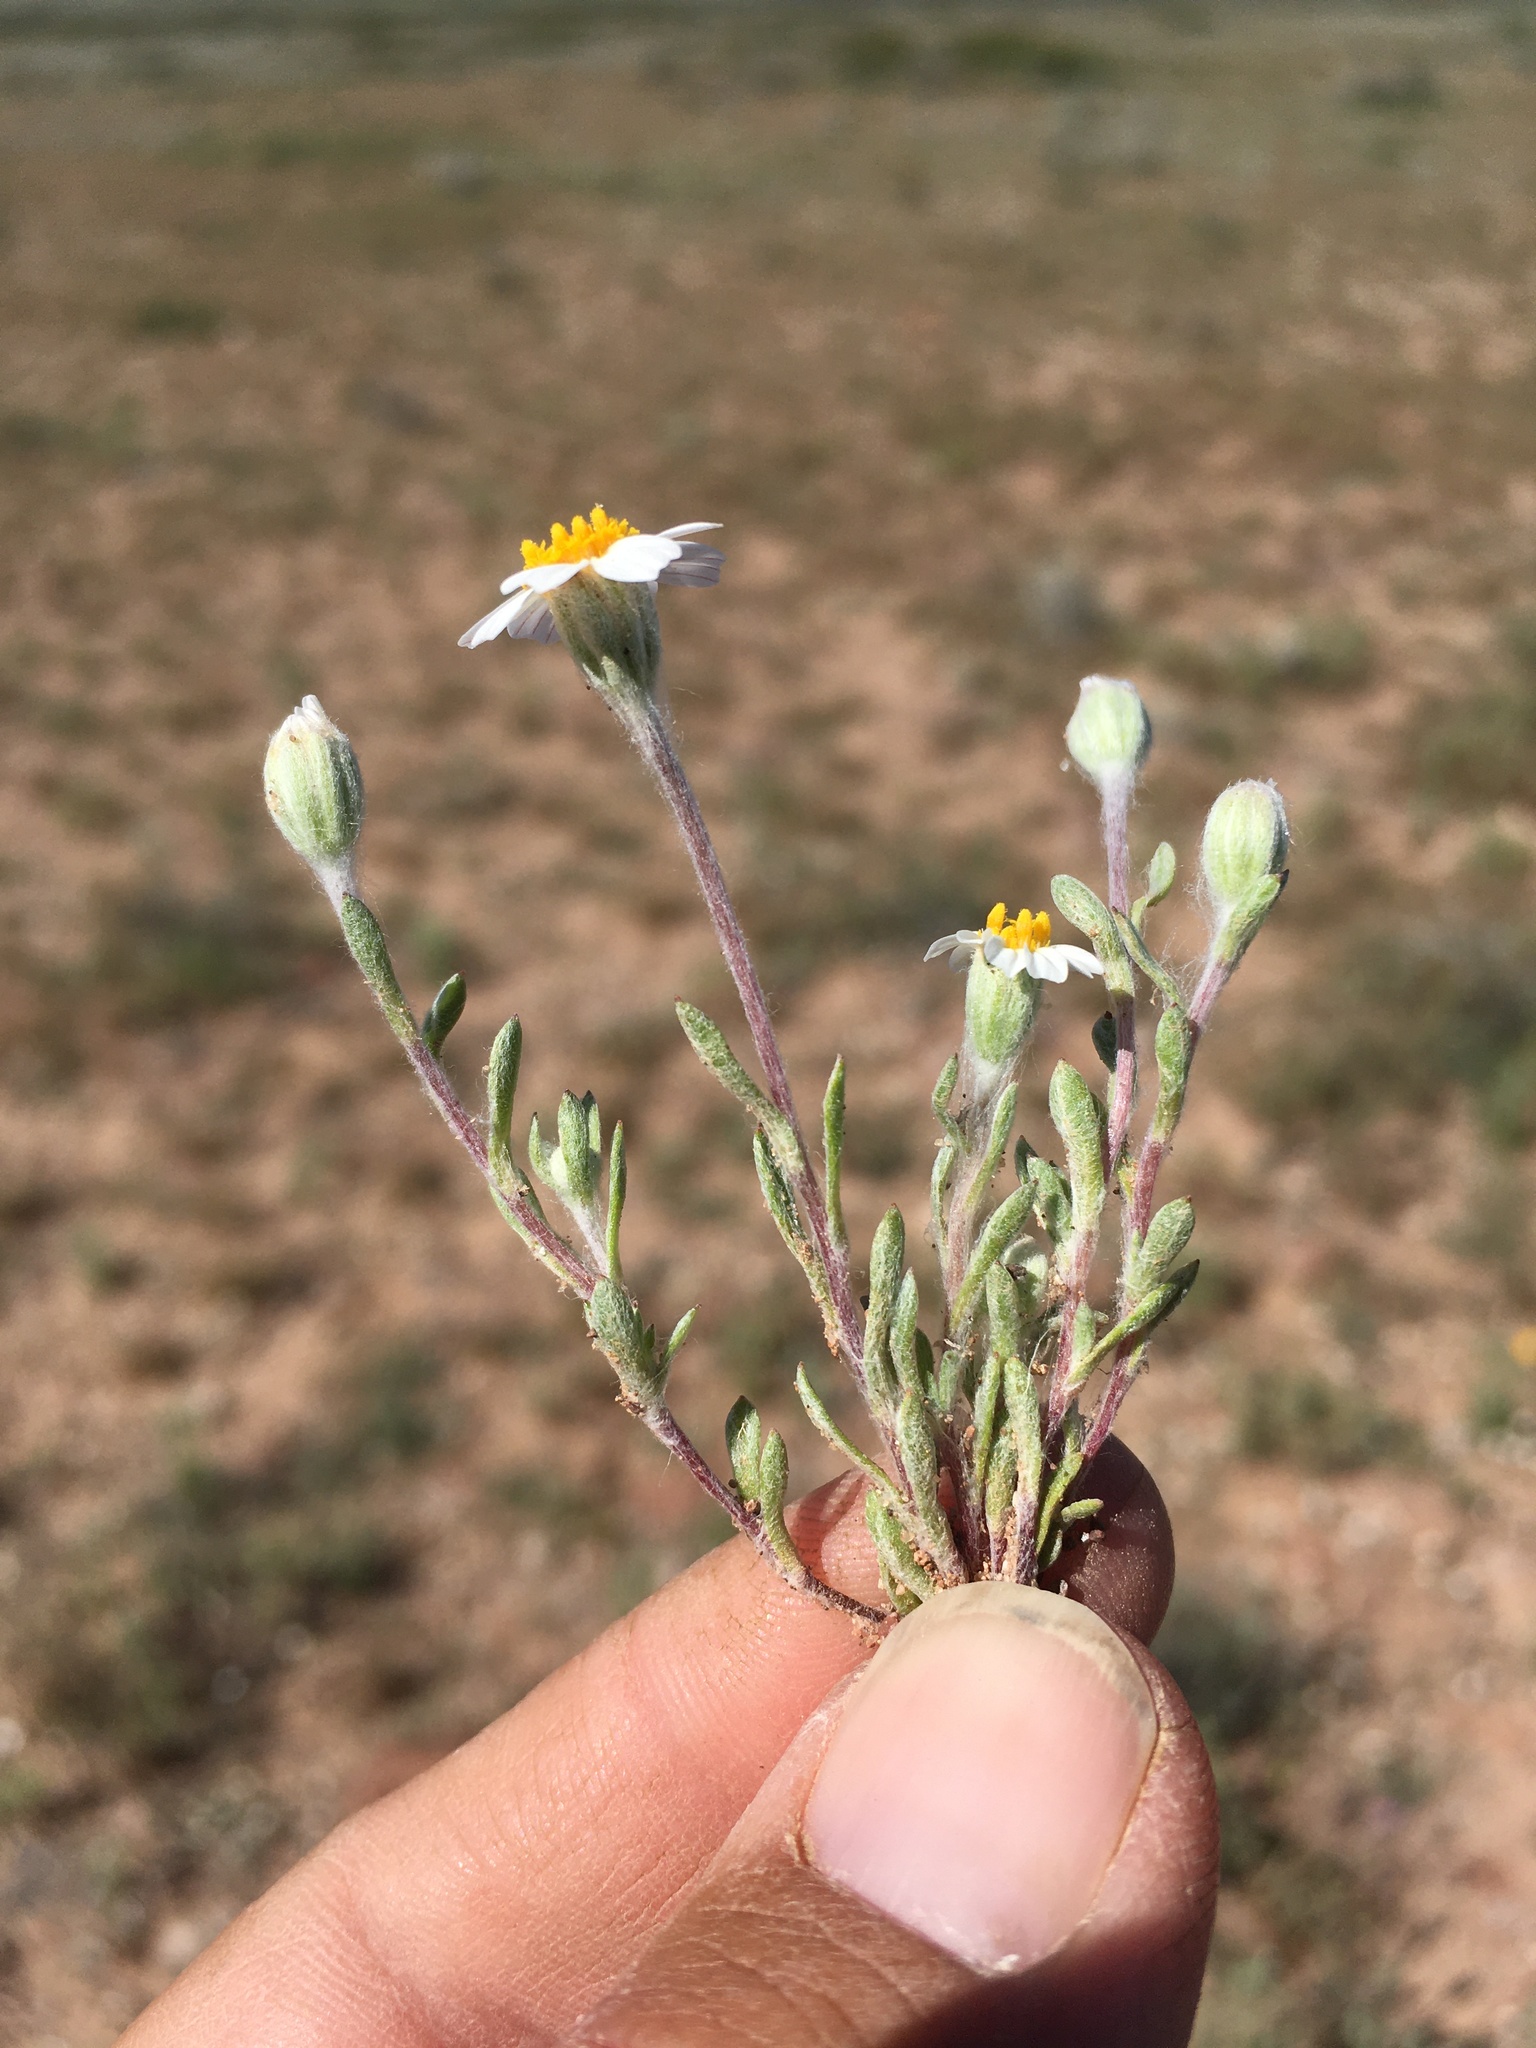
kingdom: Plantae
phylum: Tracheophyta
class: Magnoliopsida
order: Asterales
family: Asteraceae
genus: Eriophyllum
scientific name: Eriophyllum lanosum
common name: White easter-bonnets
